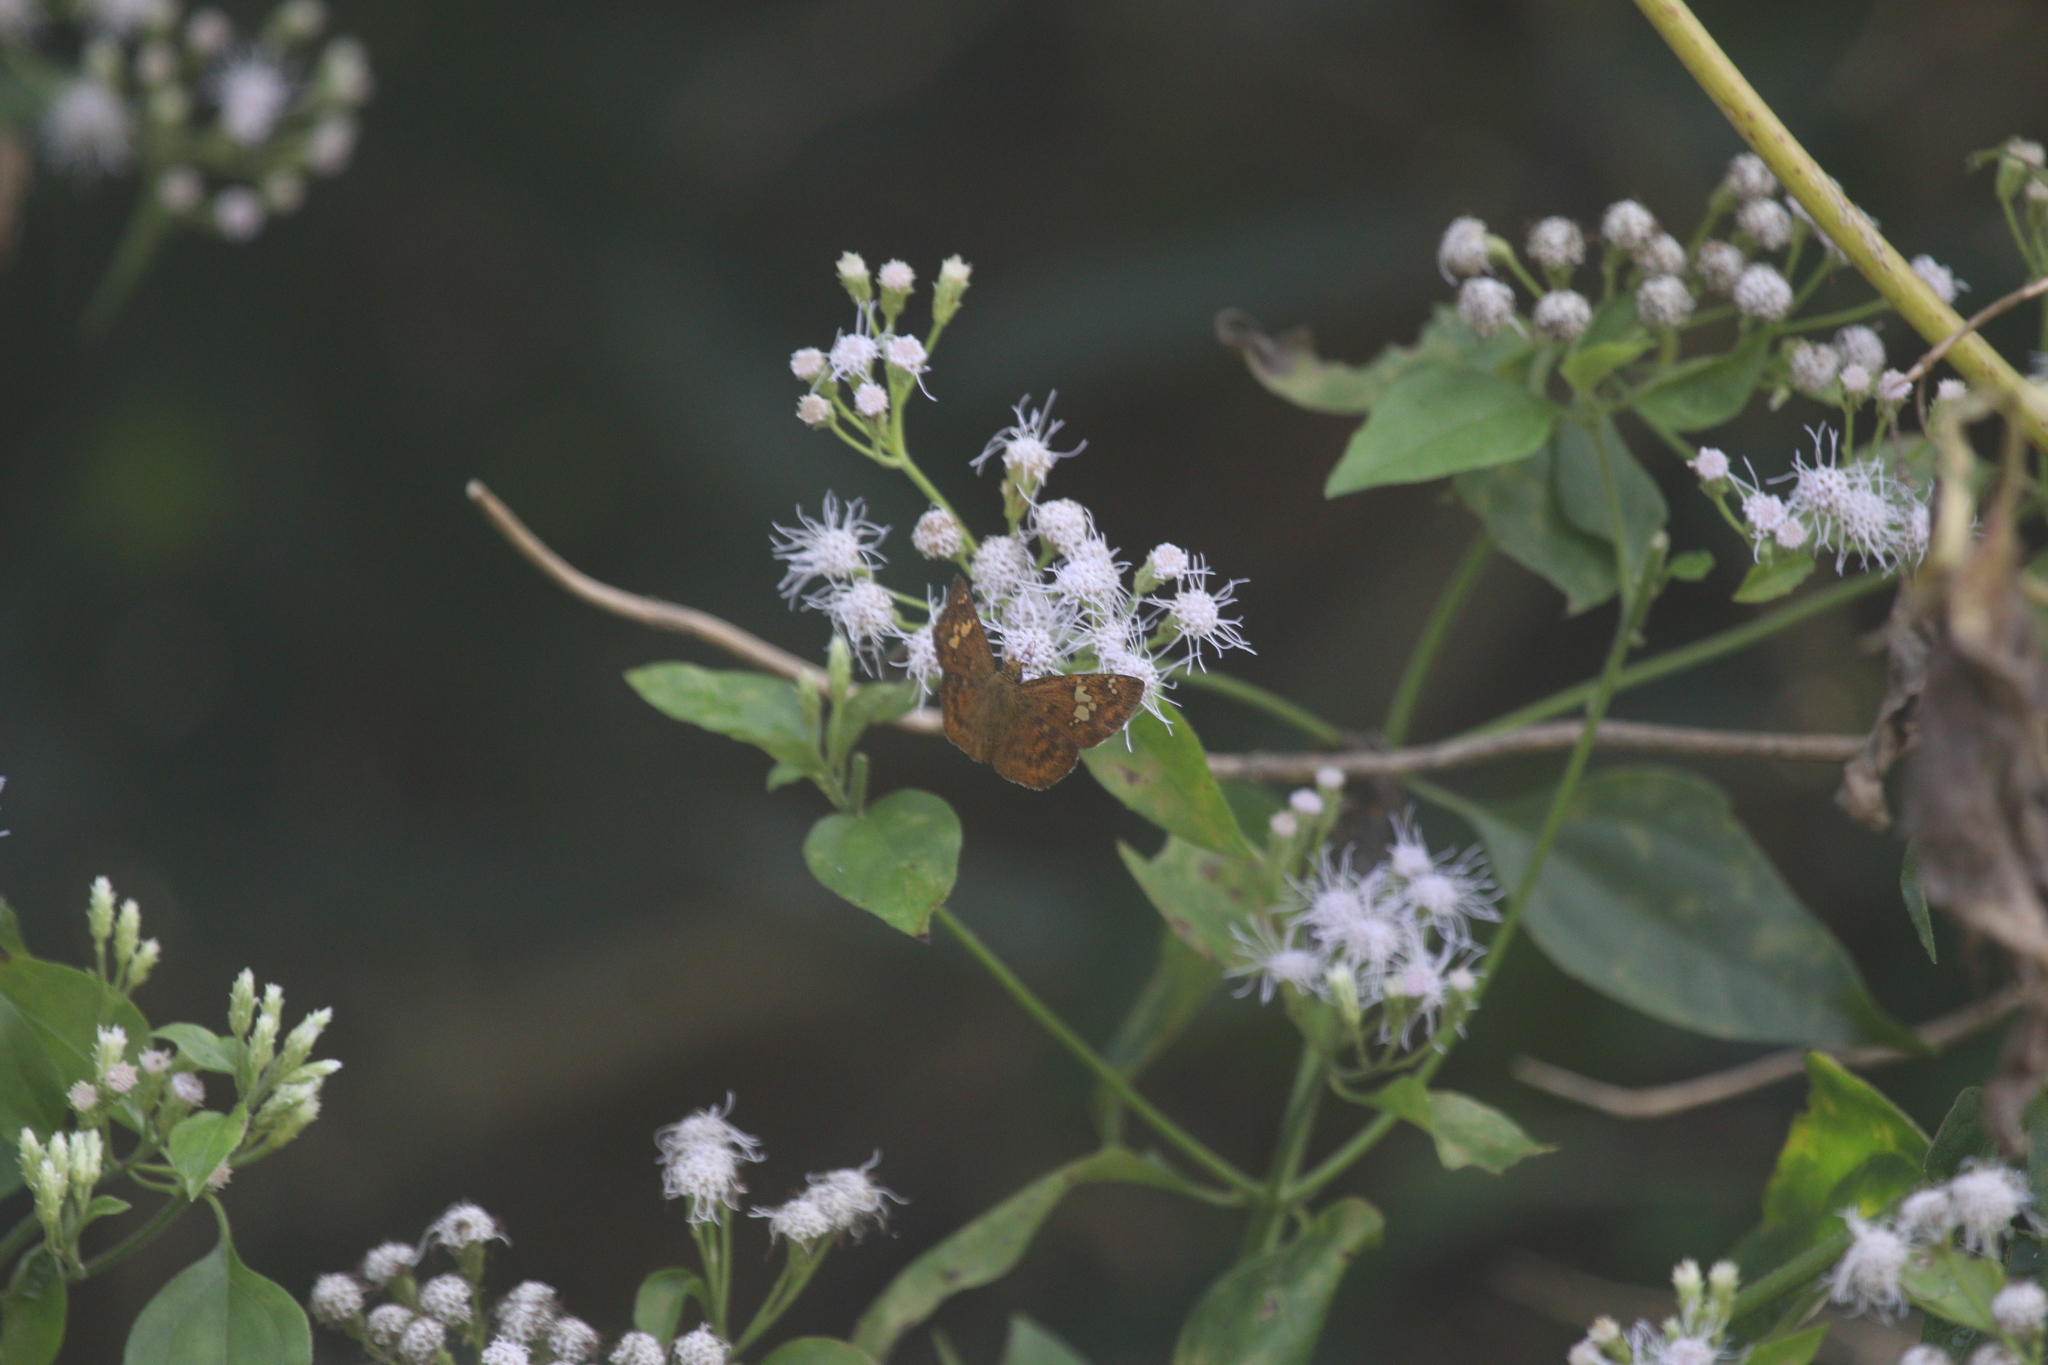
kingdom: Animalia
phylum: Arthropoda
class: Insecta
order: Lepidoptera
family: Hesperiidae
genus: Pseudocoladenia
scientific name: Pseudocoladenia dan
